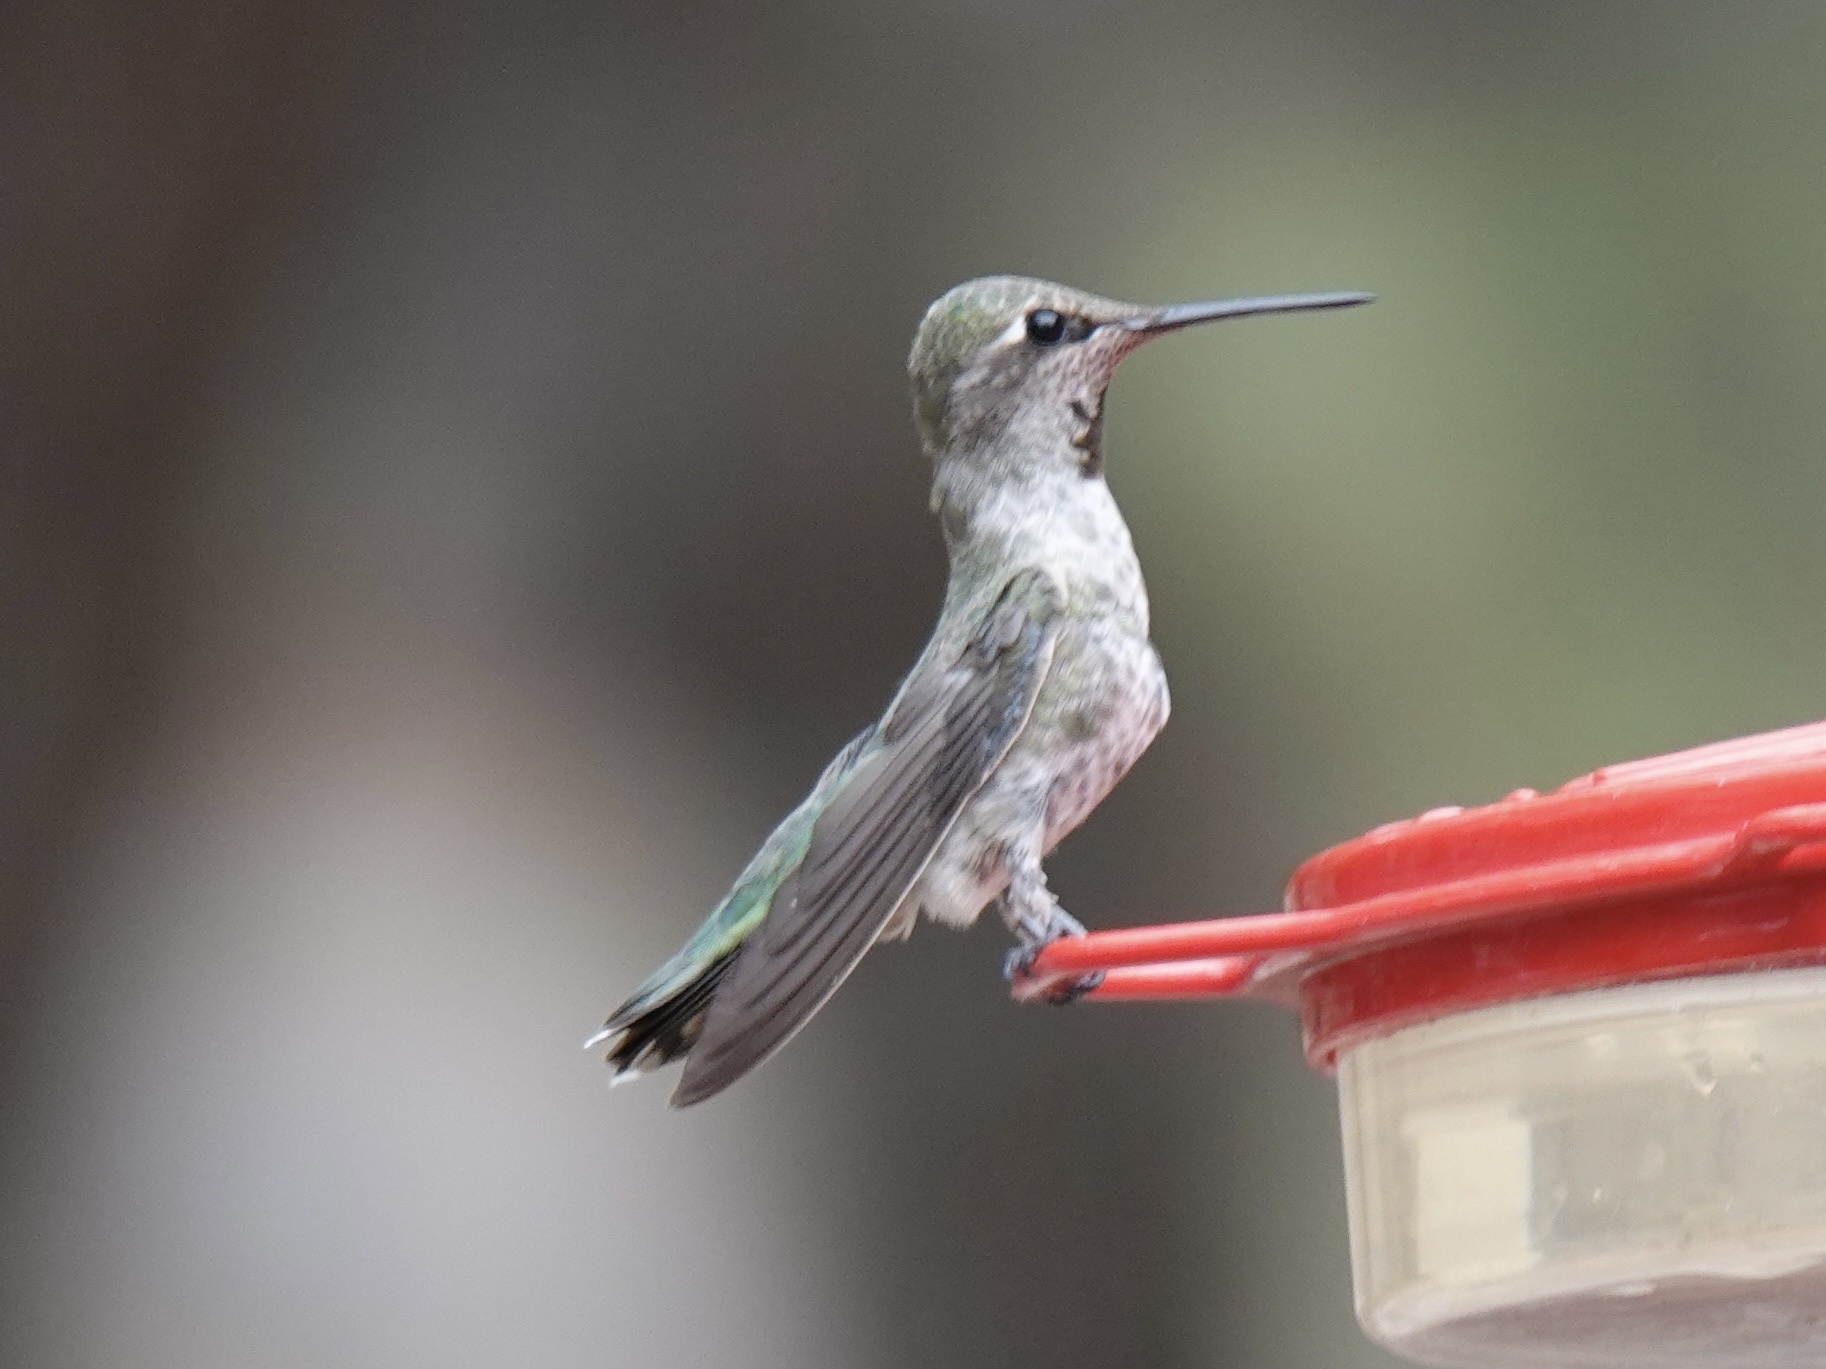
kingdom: Animalia
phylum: Chordata
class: Aves
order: Apodiformes
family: Trochilidae
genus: Calypte
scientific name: Calypte anna
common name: Anna's hummingbird
